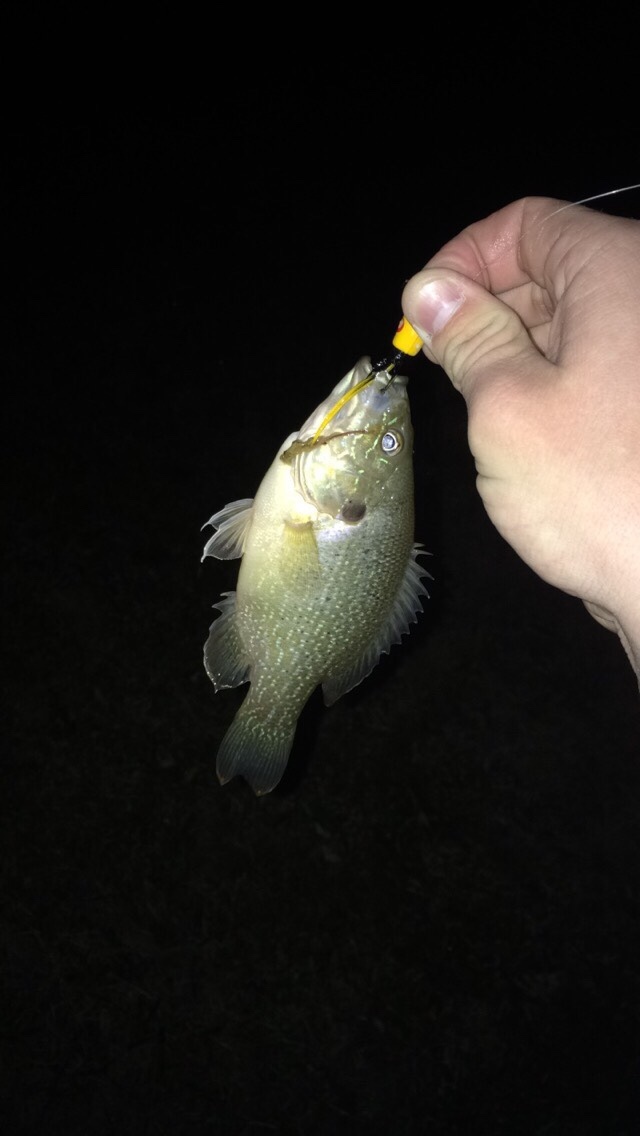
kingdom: Animalia
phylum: Chordata
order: Perciformes
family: Centrarchidae
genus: Lepomis
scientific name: Lepomis cyanellus
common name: Green sunfish
